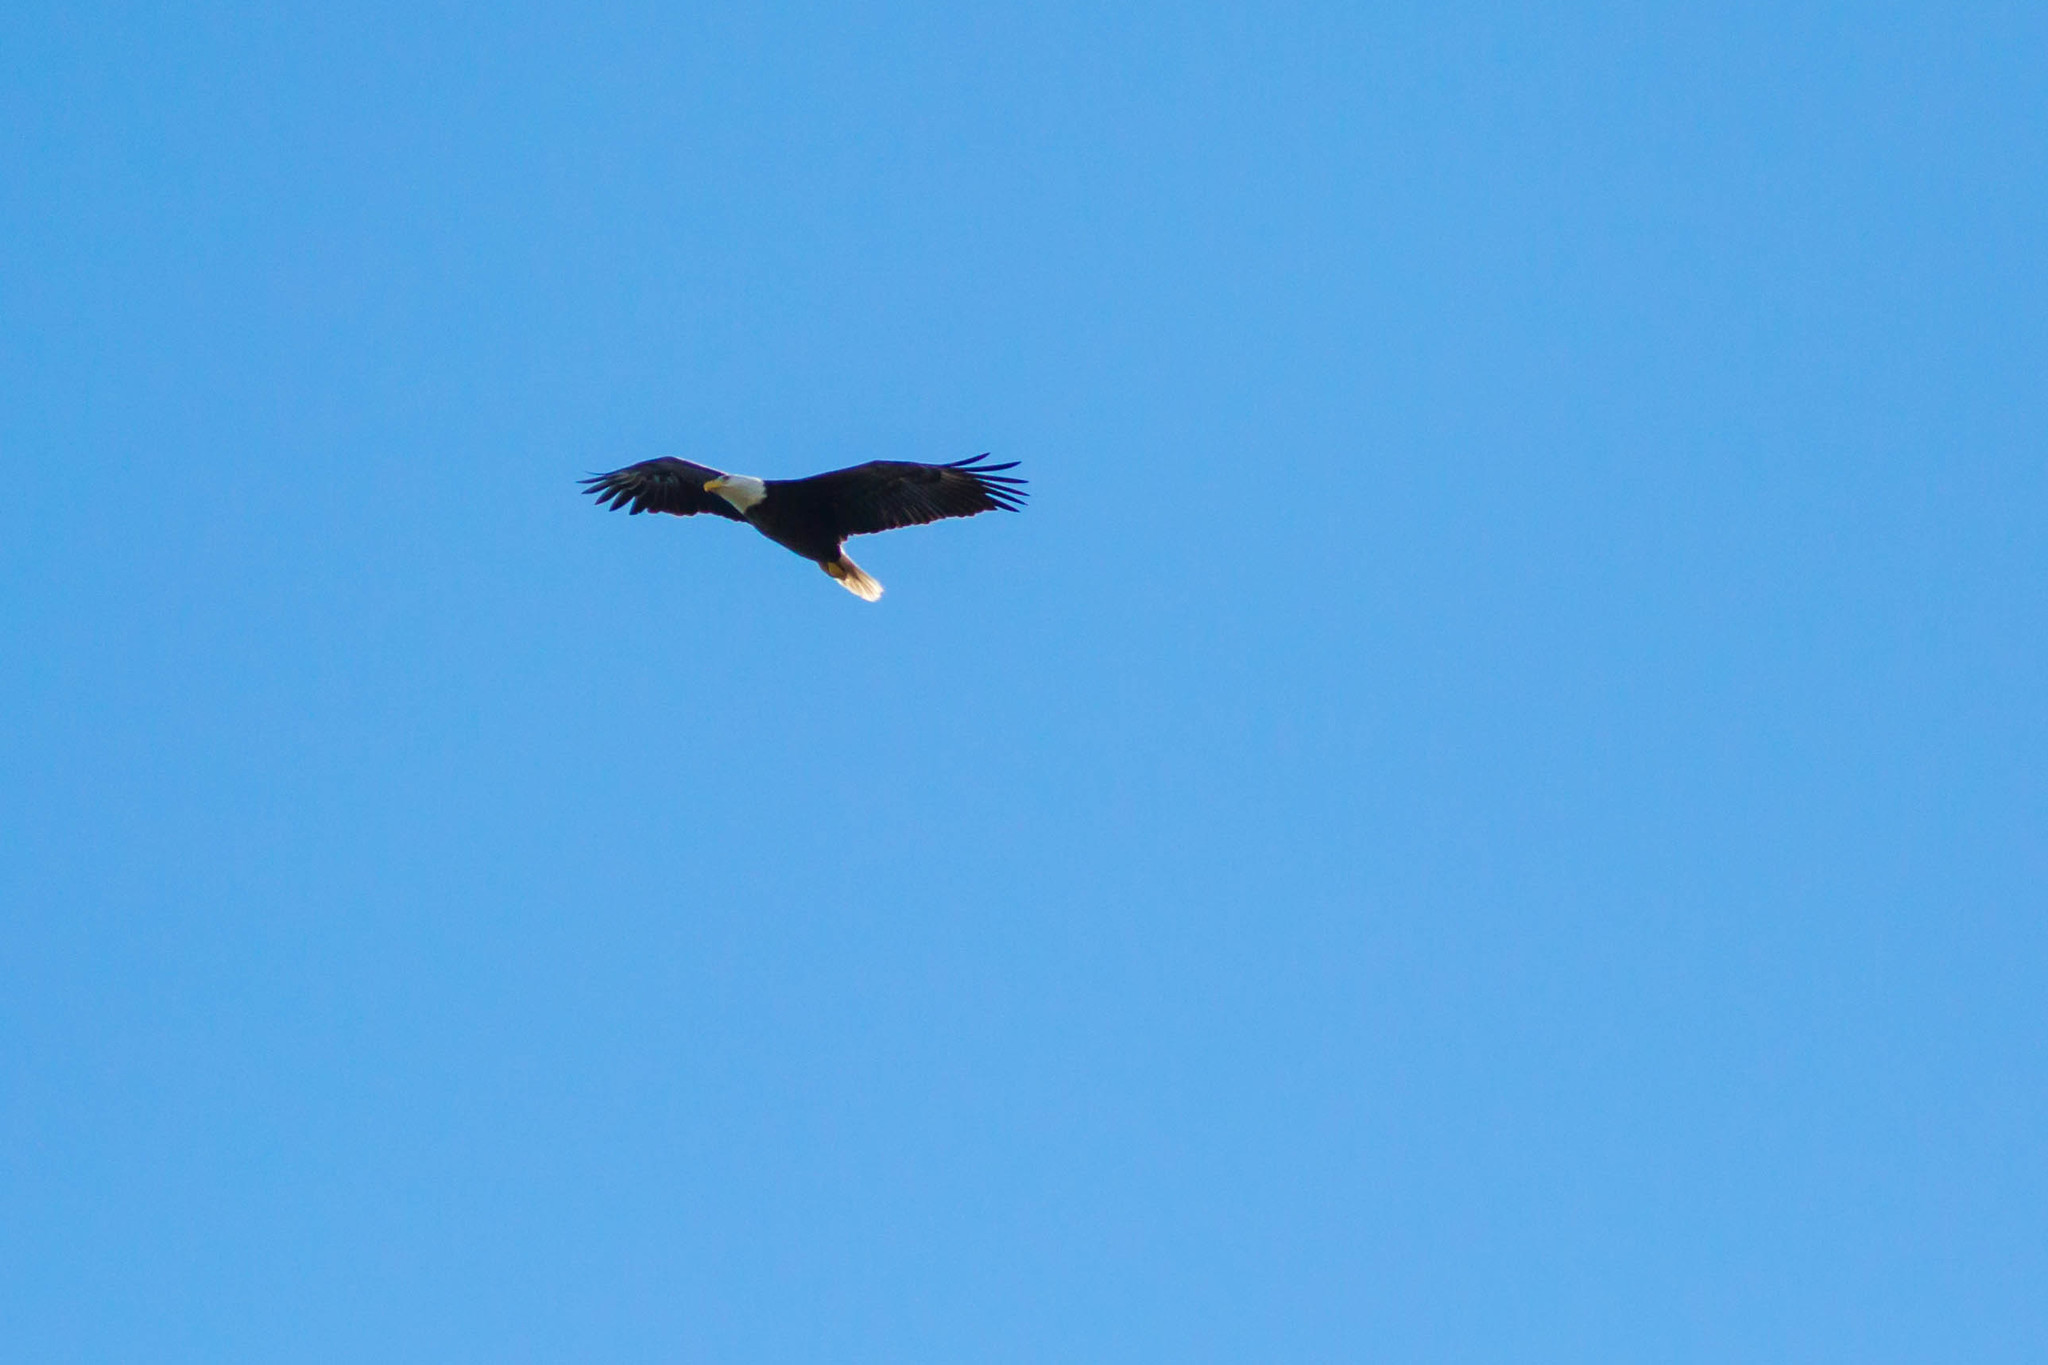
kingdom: Animalia
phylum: Chordata
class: Aves
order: Accipitriformes
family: Accipitridae
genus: Haliaeetus
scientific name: Haliaeetus leucocephalus
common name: Bald eagle
